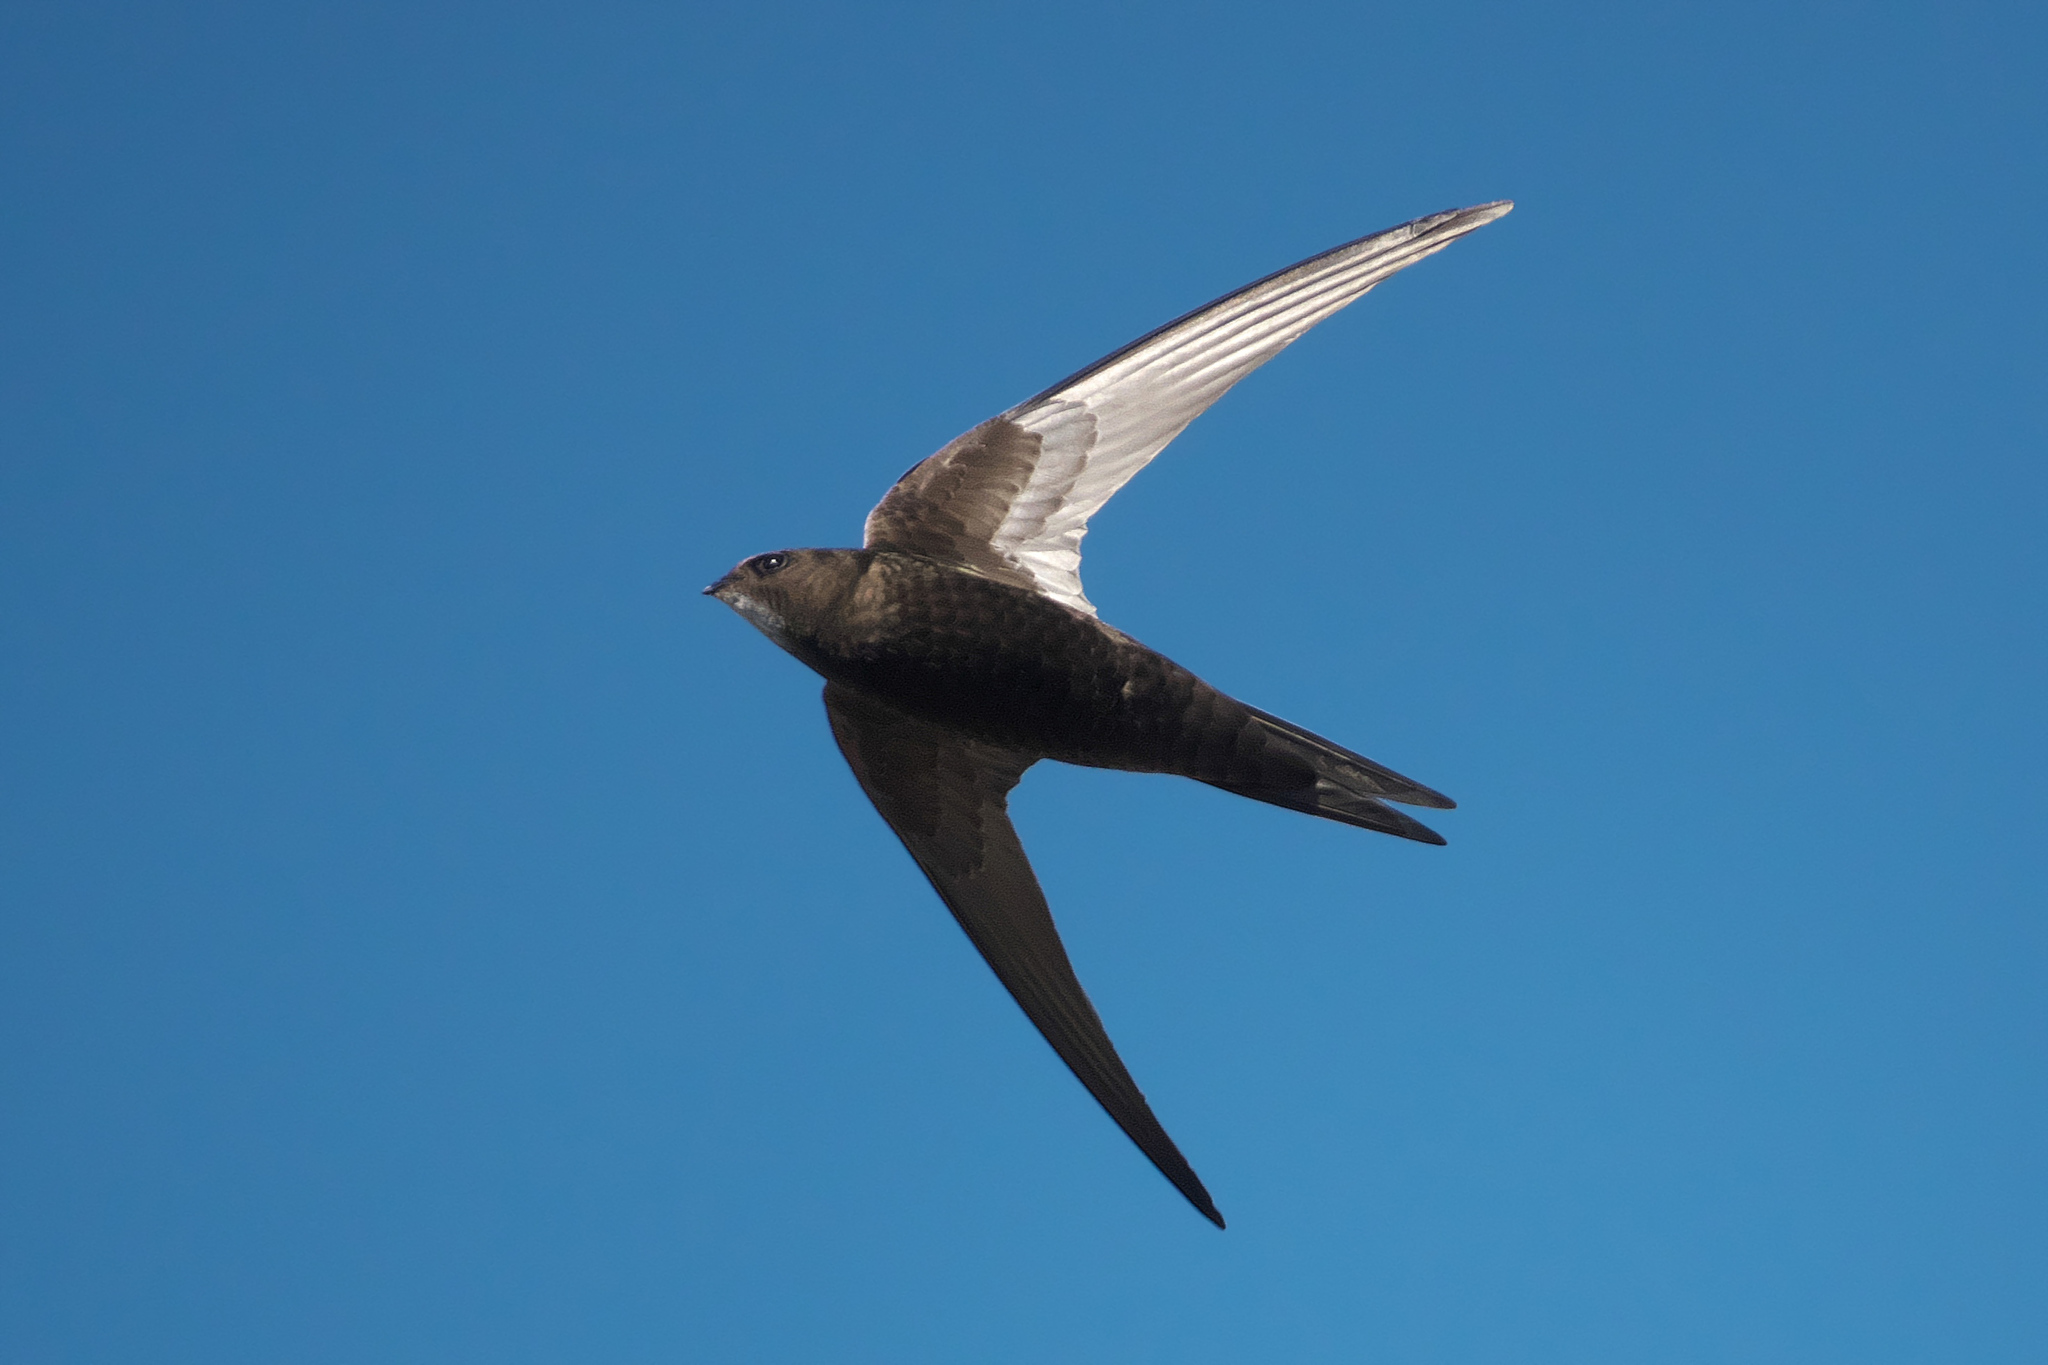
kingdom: Animalia
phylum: Chordata
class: Aves
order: Apodiformes
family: Apodidae
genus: Apus
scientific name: Apus apus
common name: Common swift
